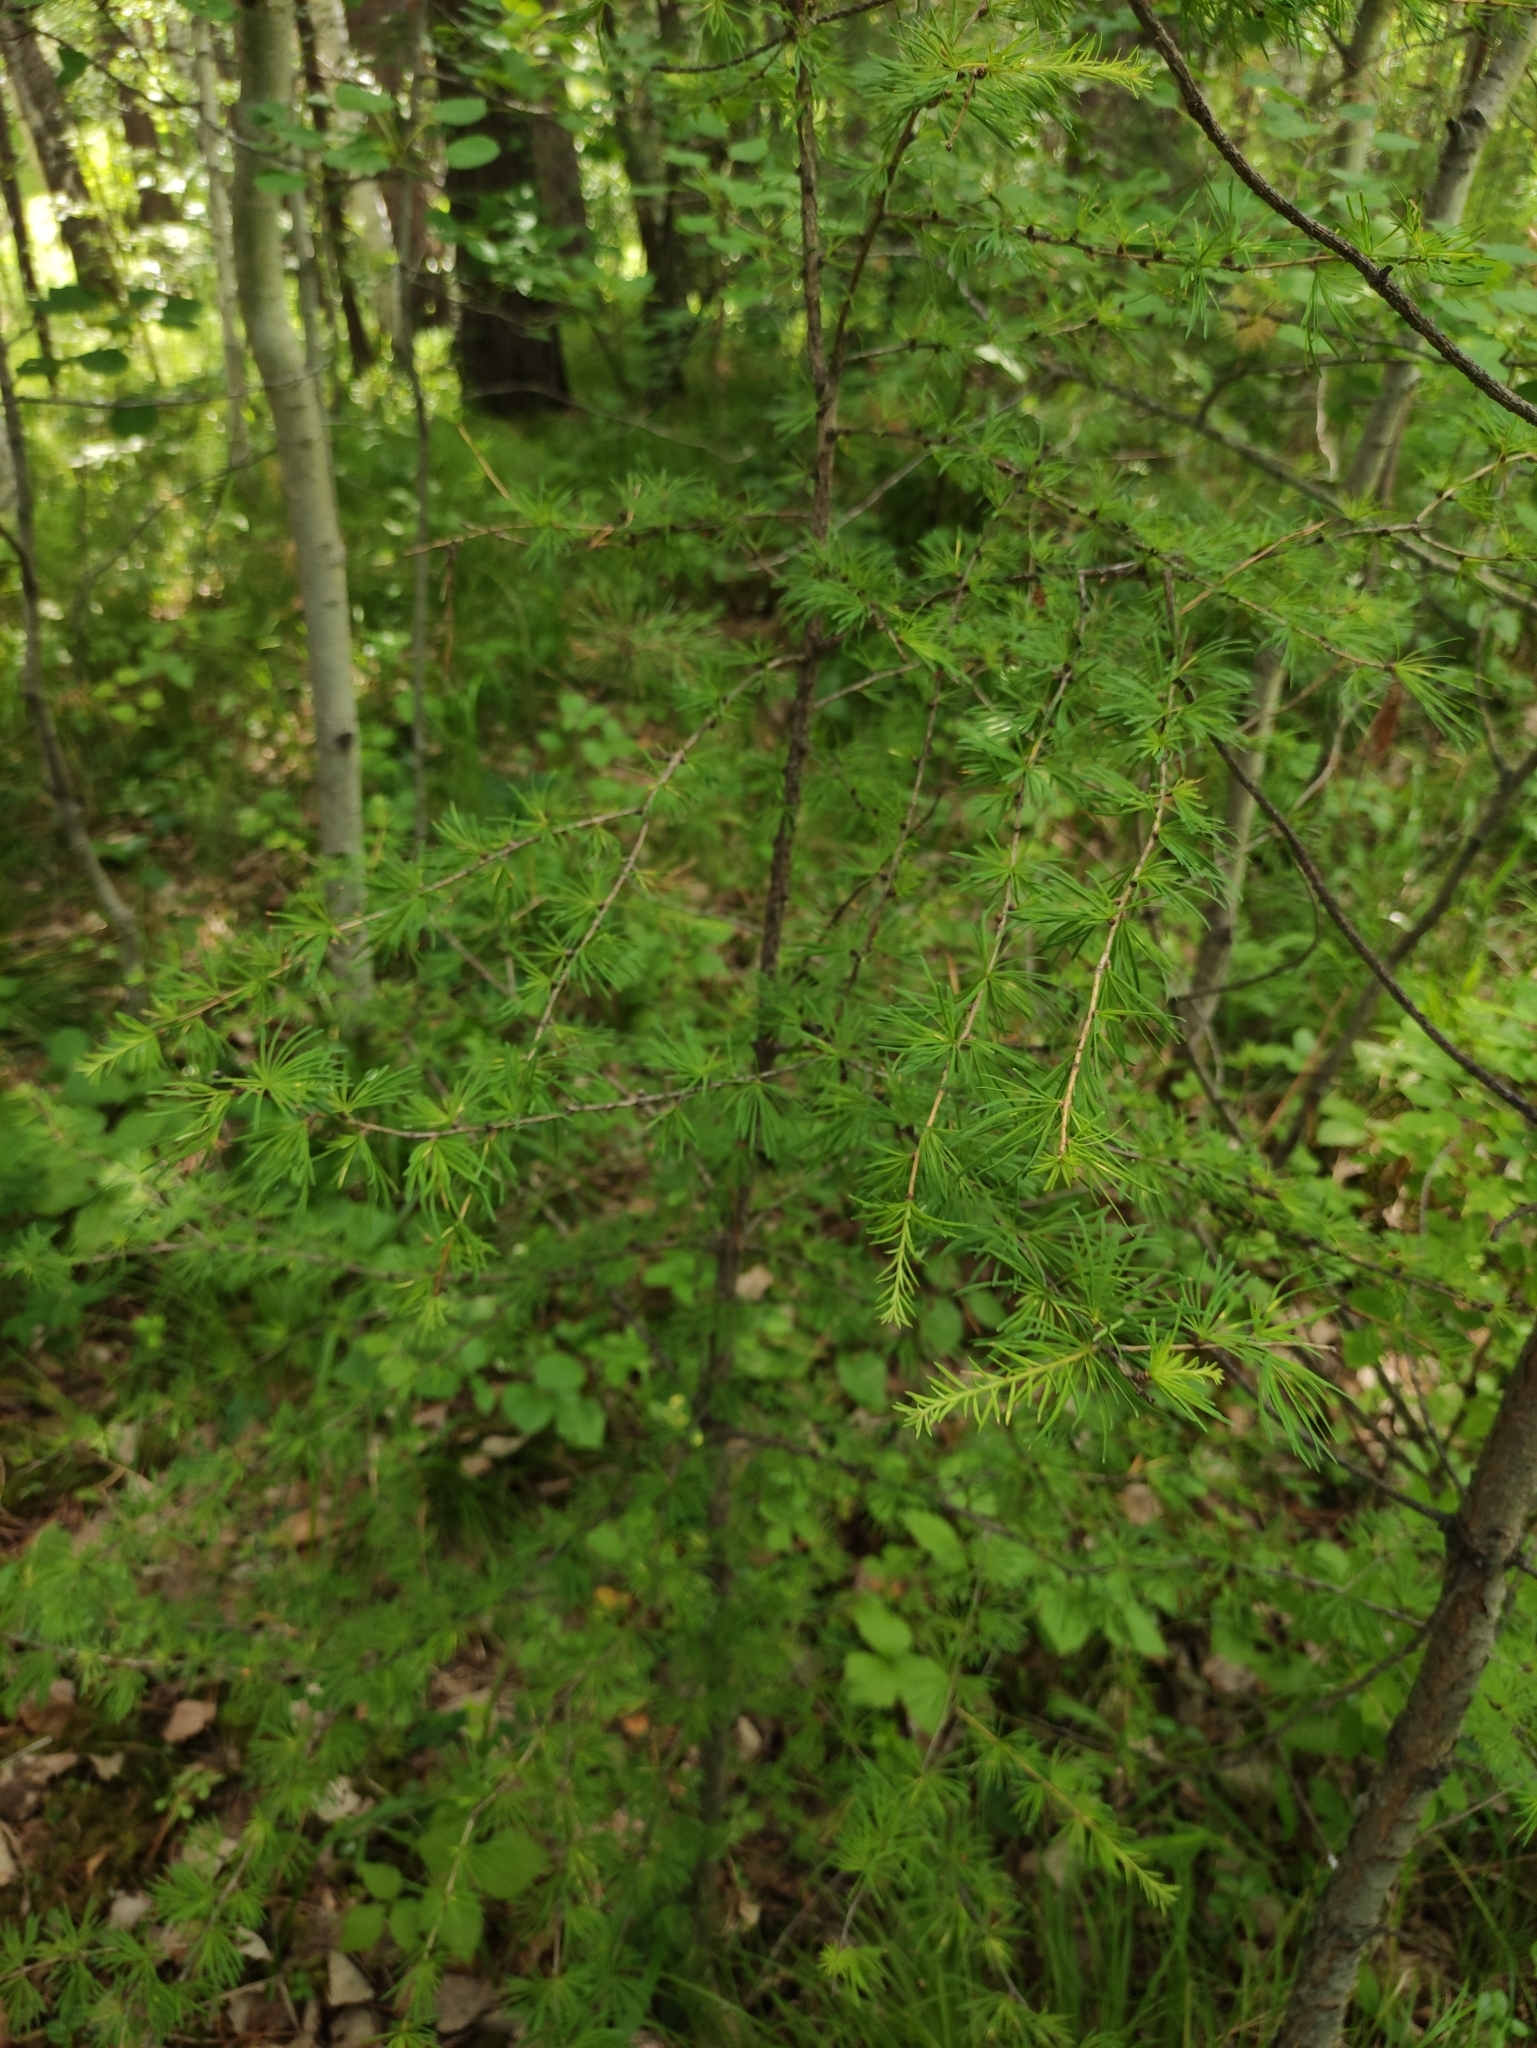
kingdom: Plantae
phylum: Tracheophyta
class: Pinopsida
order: Pinales
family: Pinaceae
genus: Larix
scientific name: Larix sibirica
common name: Siberian larch
